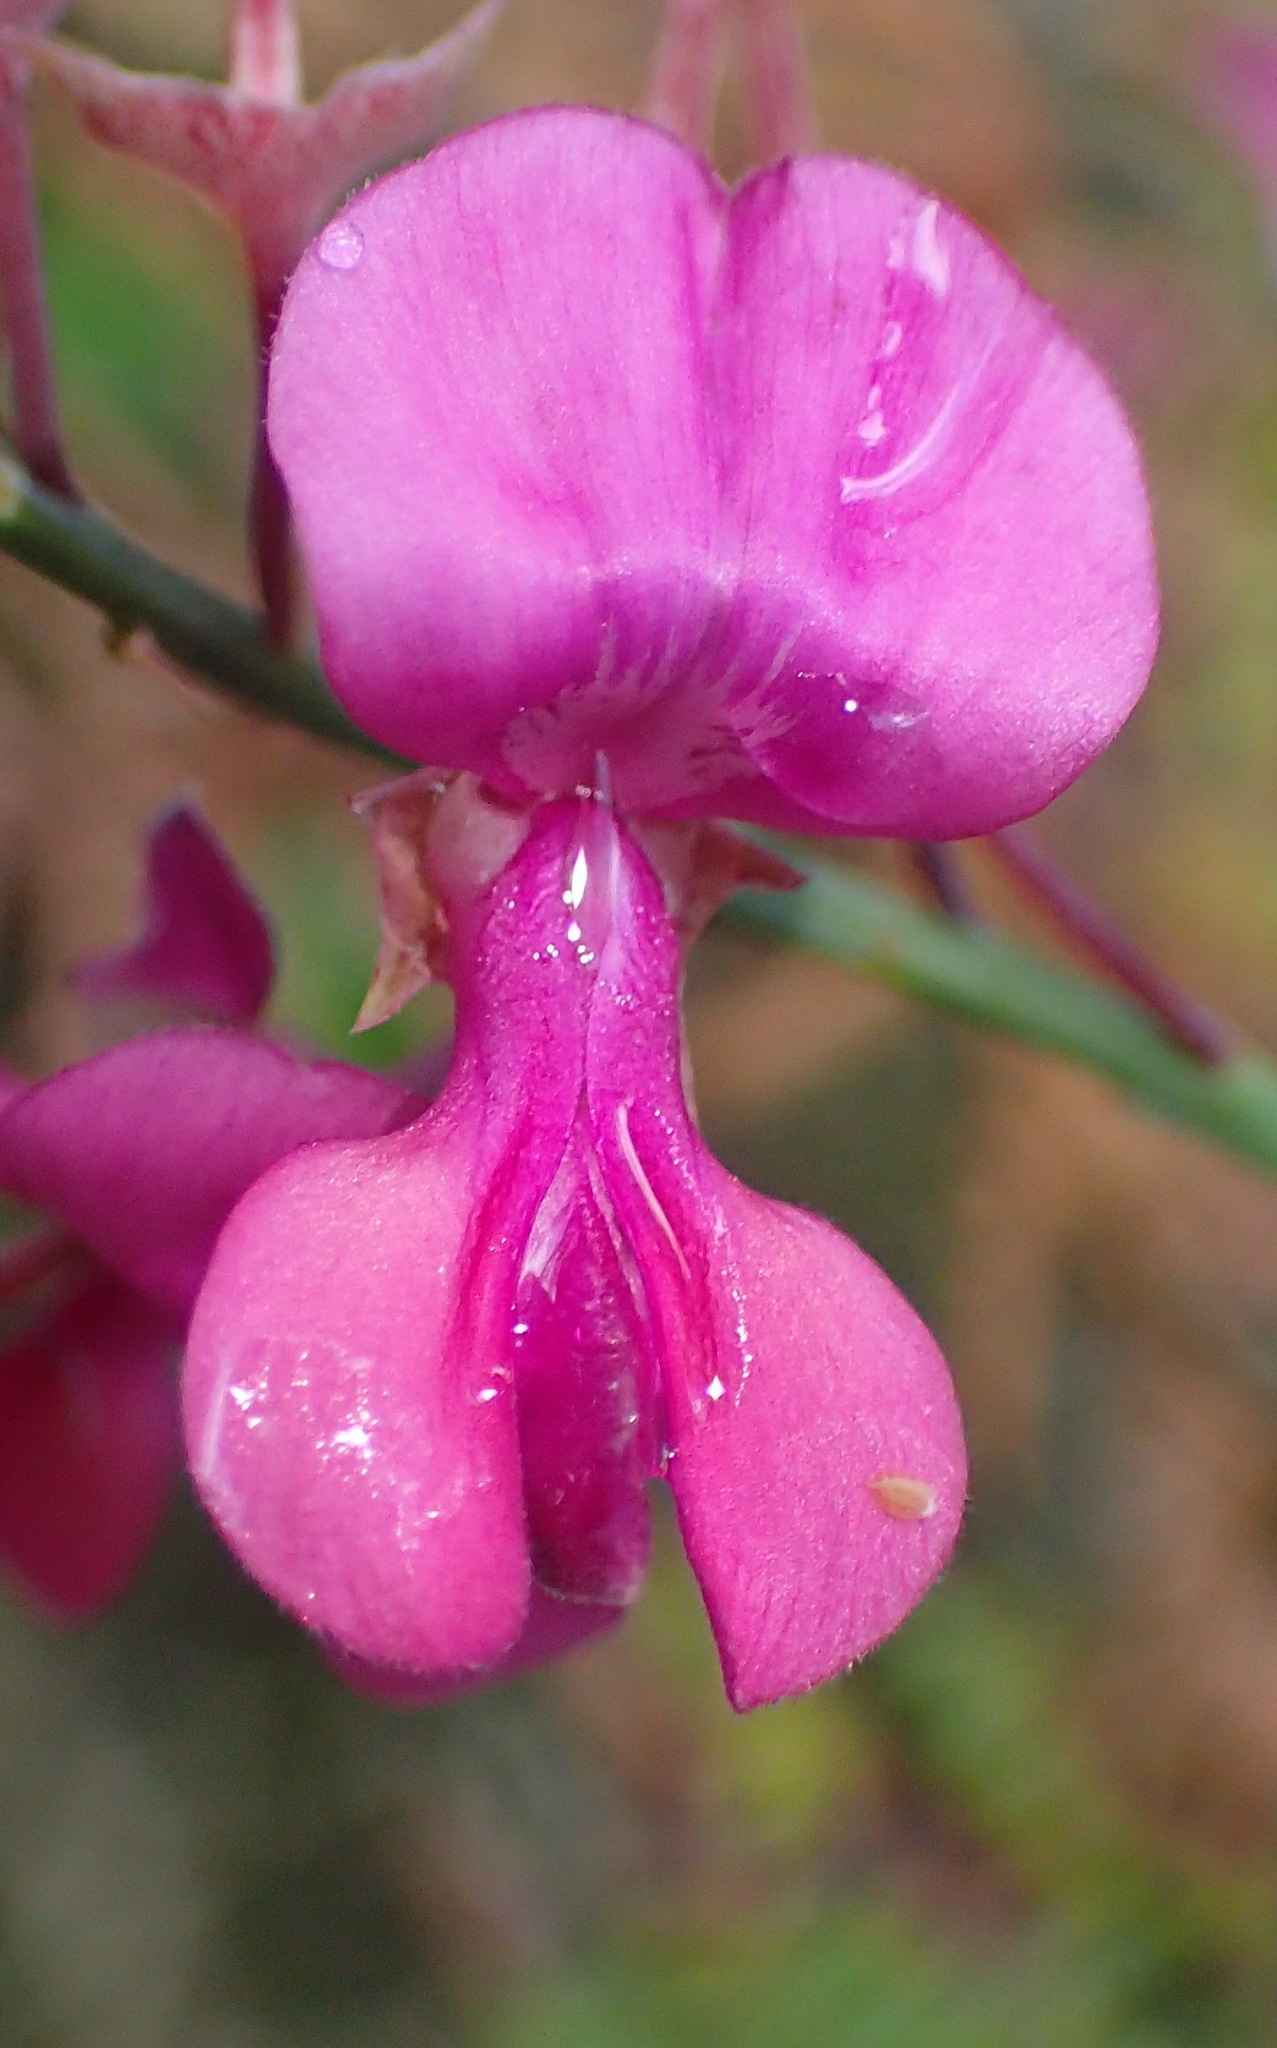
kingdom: Plantae
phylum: Tracheophyta
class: Magnoliopsida
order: Fabales
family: Fabaceae
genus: Indigofera
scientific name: Indigofera filifolia
